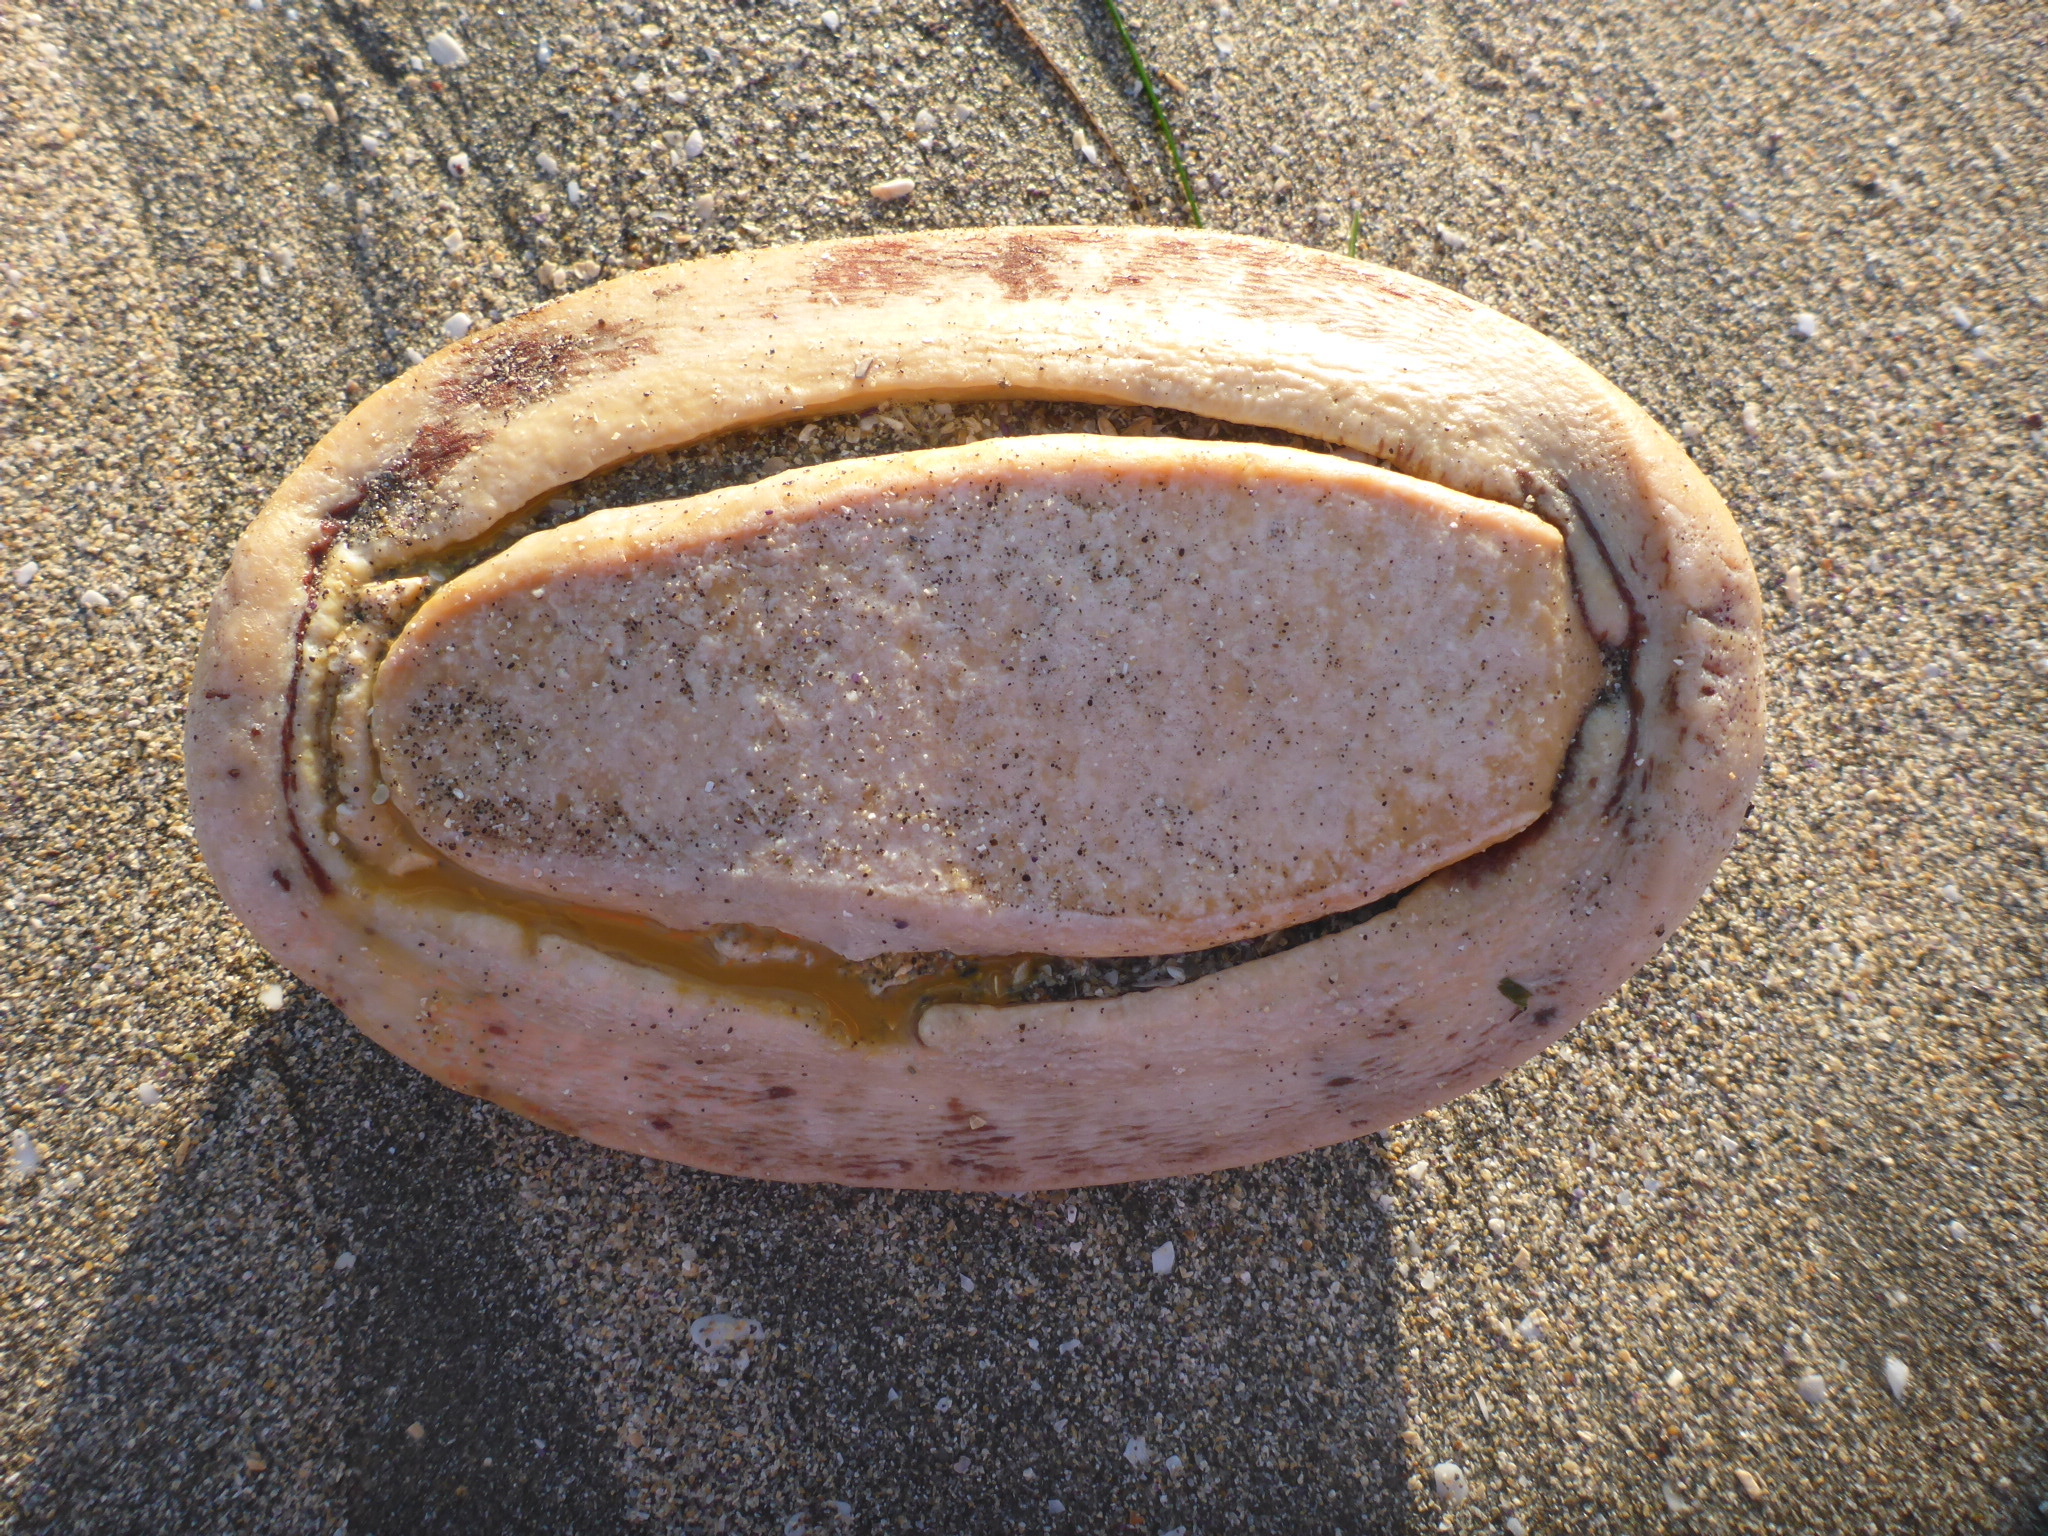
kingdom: Animalia
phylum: Mollusca
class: Polyplacophora
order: Chitonida
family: Acanthochitonidae
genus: Cryptochiton
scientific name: Cryptochiton stelleri
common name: Giant pacific chiton
